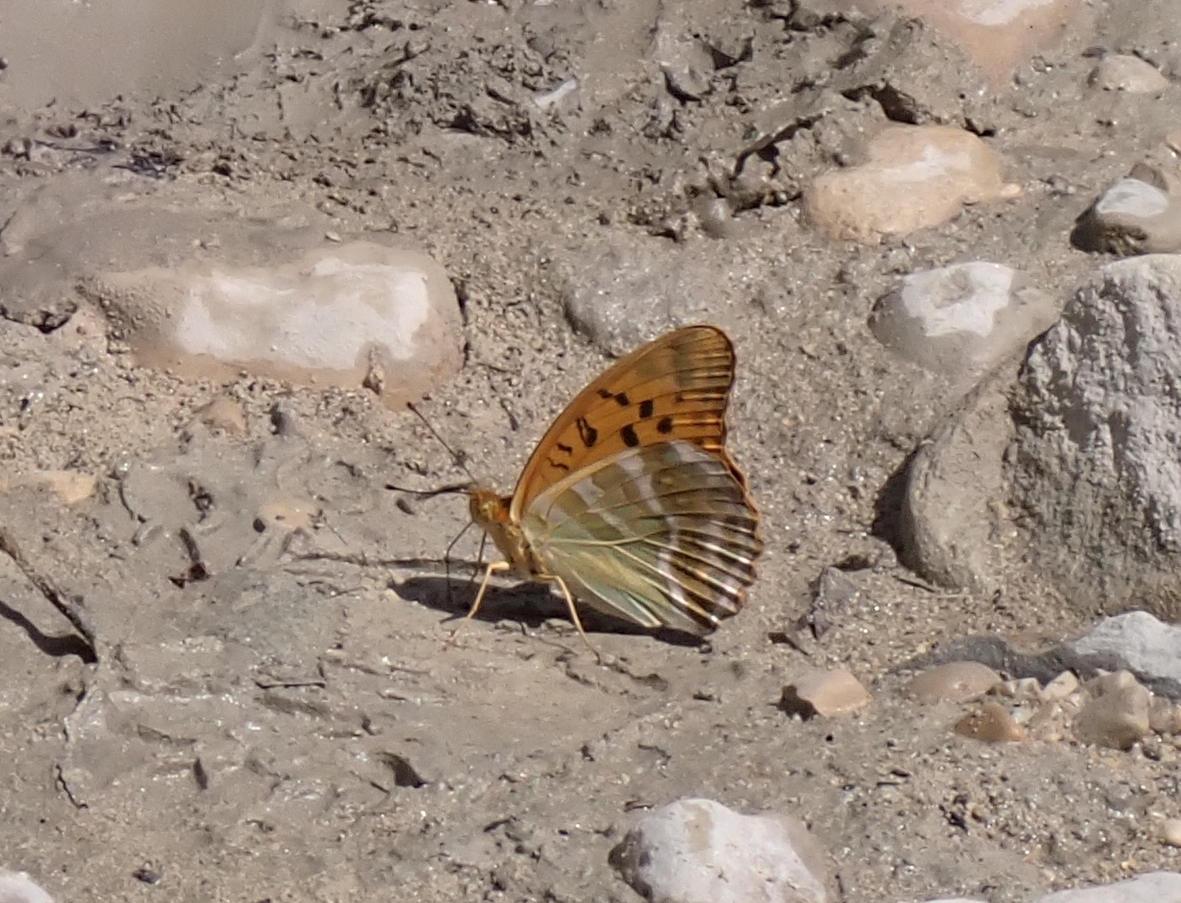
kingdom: Animalia
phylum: Arthropoda
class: Insecta
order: Lepidoptera
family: Nymphalidae
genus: Argynnis
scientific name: Argynnis paphia
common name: Silver-washed fritillary
